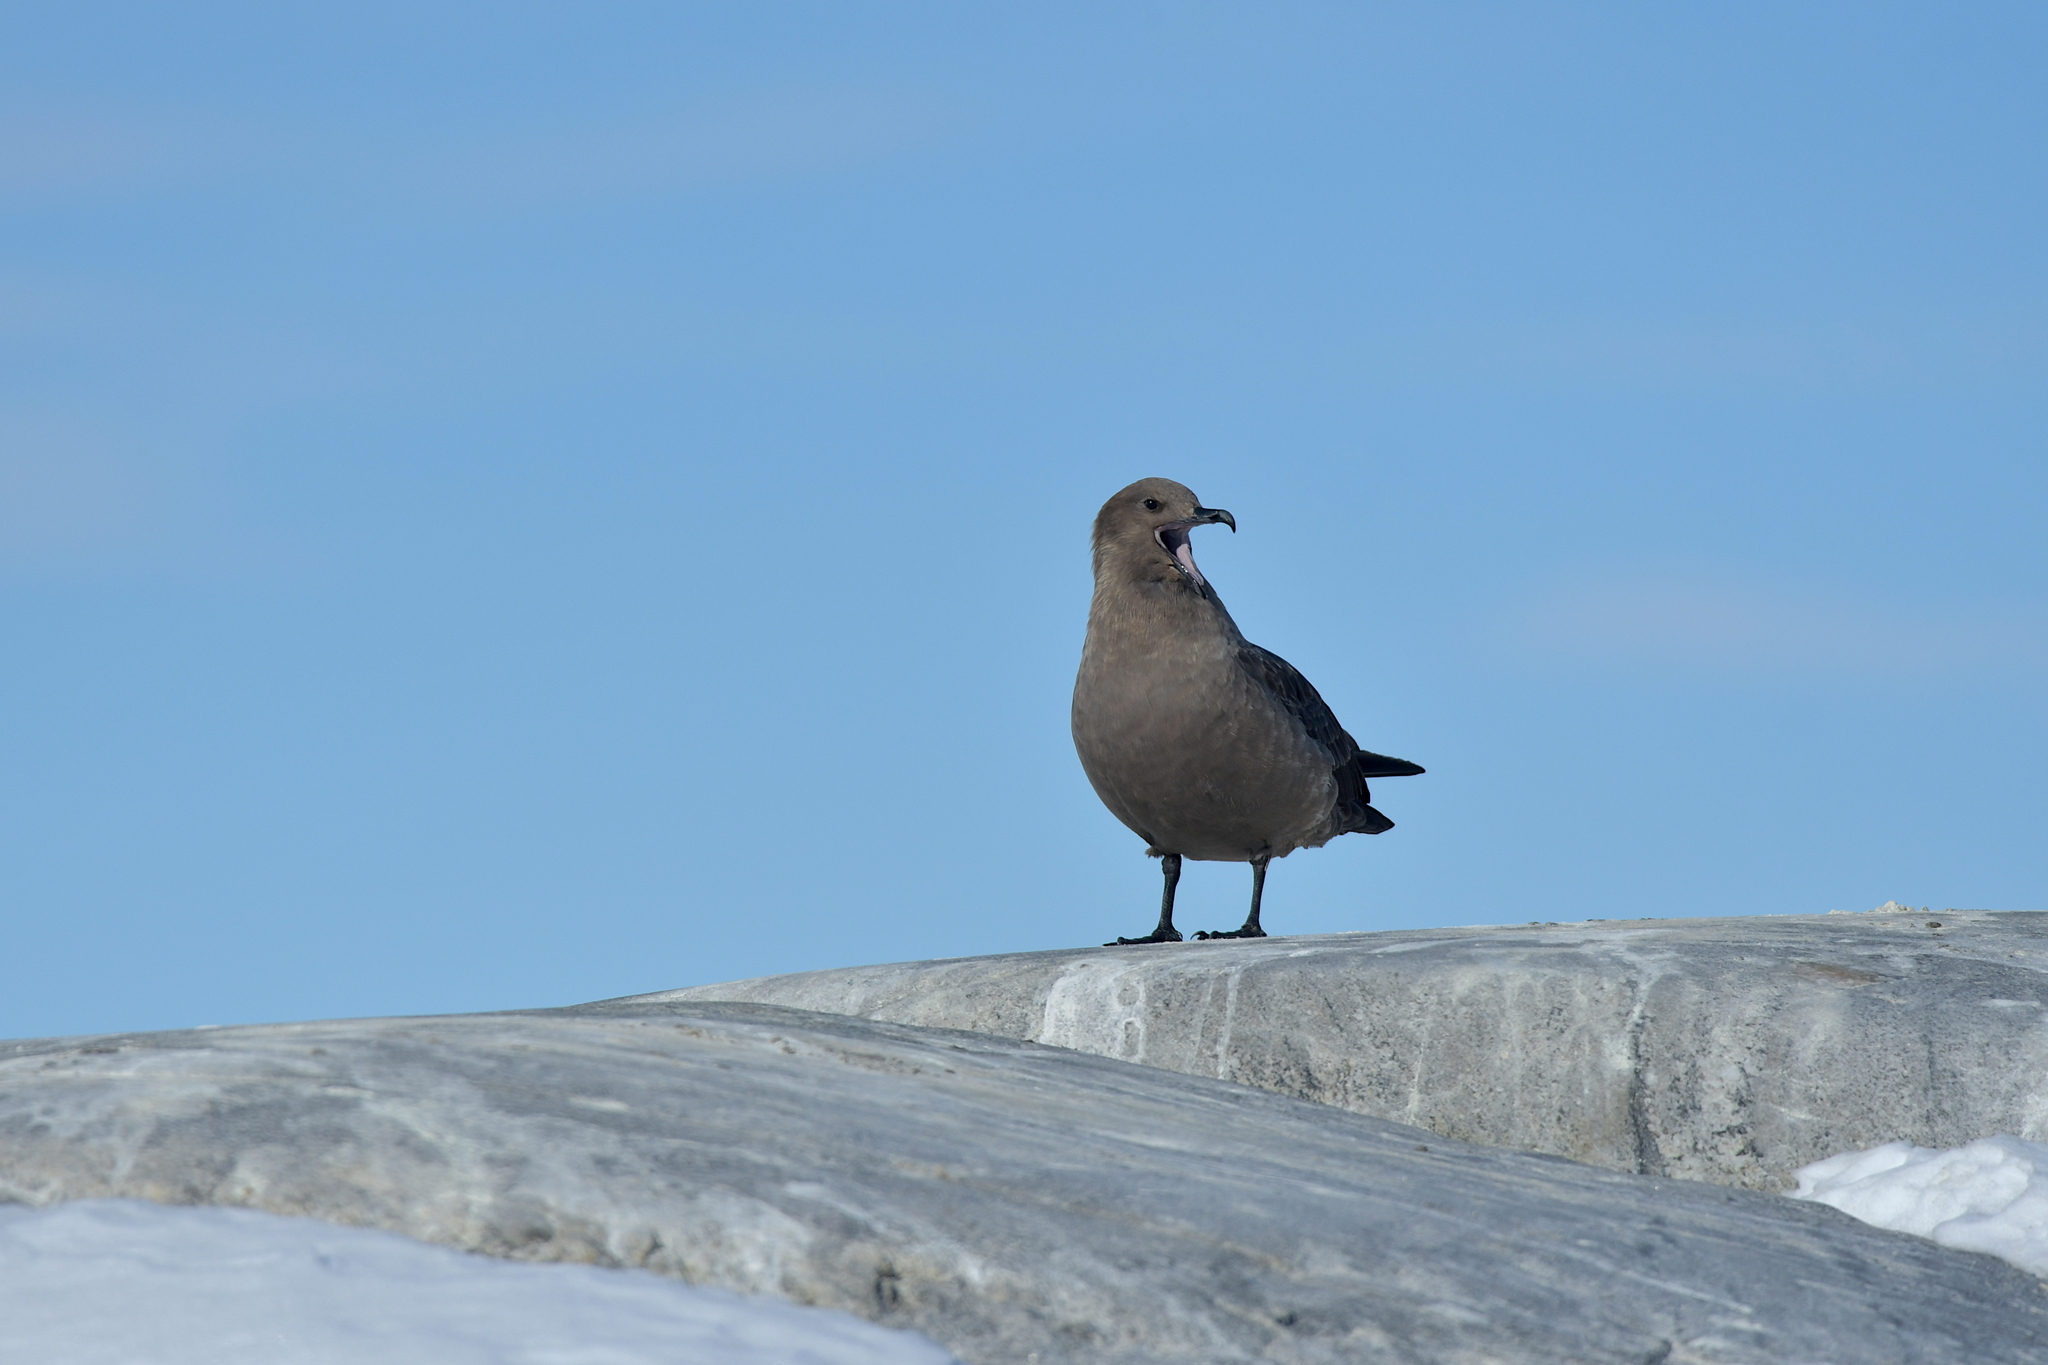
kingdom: Animalia
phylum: Chordata
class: Aves
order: Charadriiformes
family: Stercorariidae
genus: Stercorarius
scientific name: Stercorarius maccormicki
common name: South polar skua
